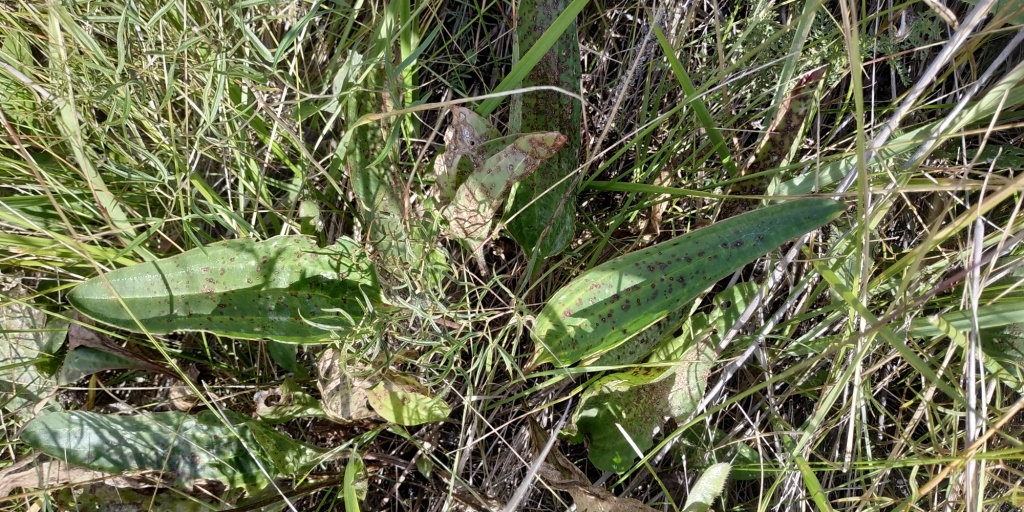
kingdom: Plantae
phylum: Tracheophyta
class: Magnoliopsida
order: Lamiales
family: Plantaginaceae
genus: Plantago
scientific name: Plantago cornuti
